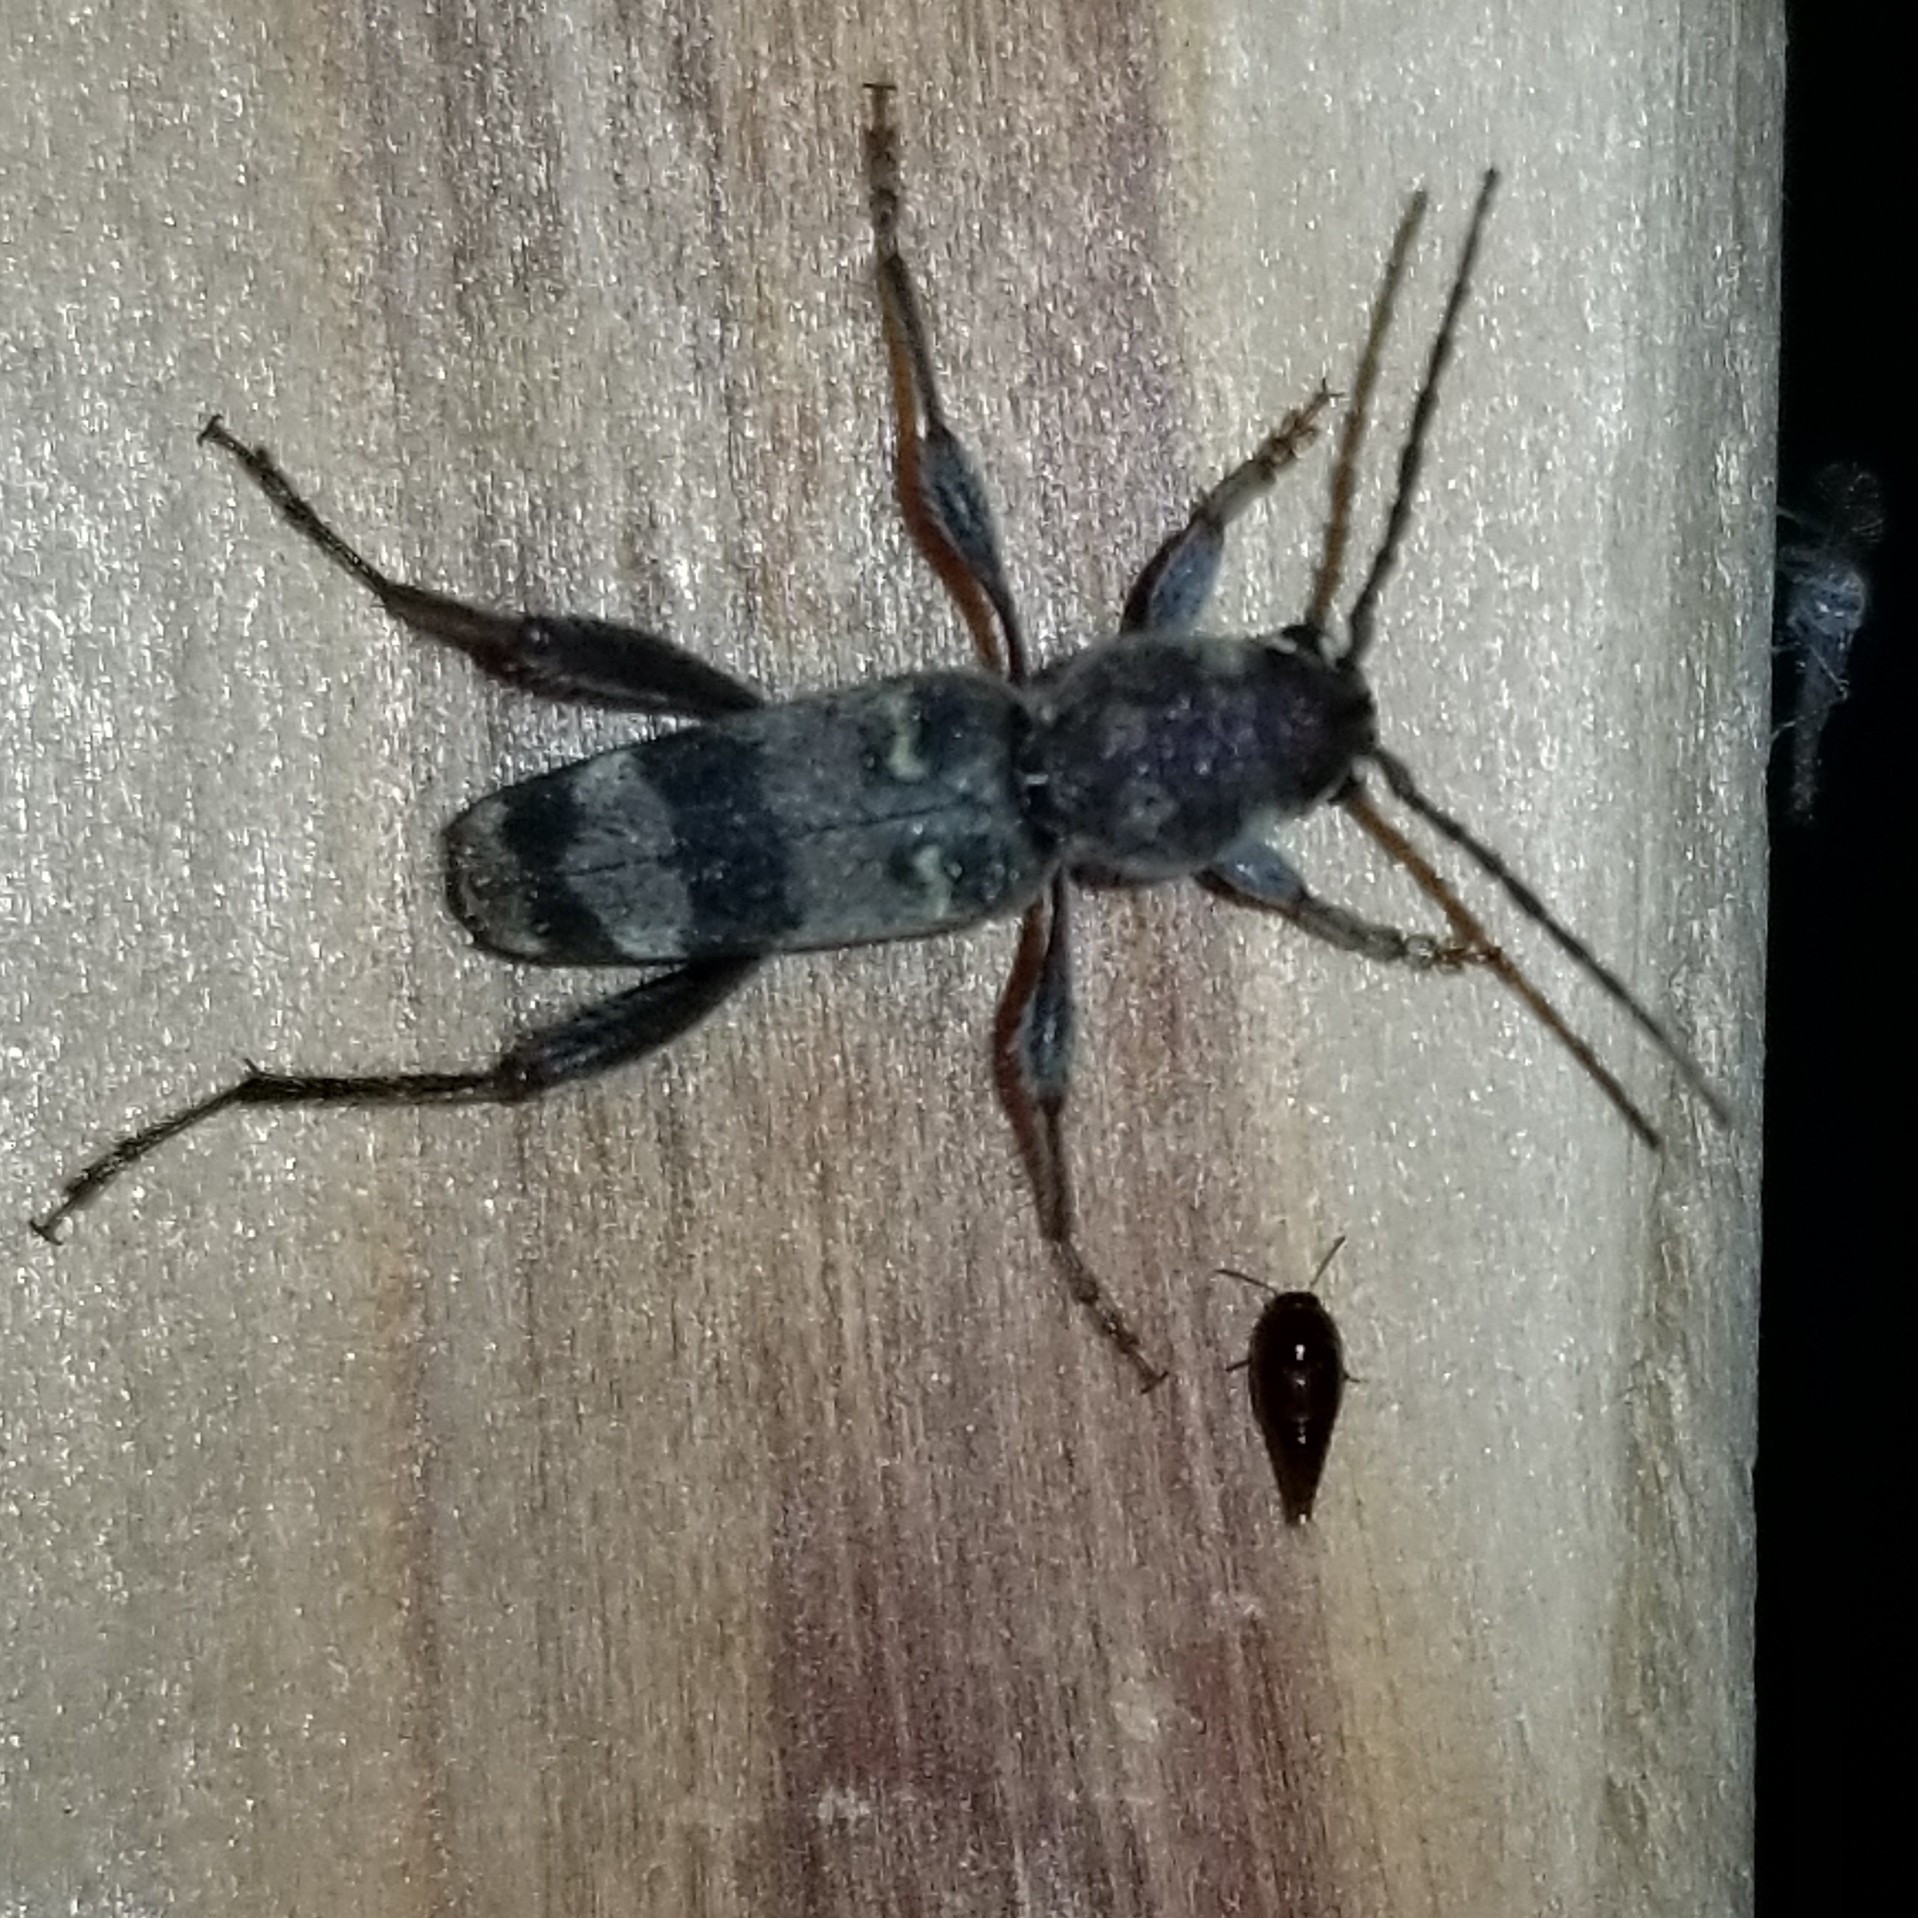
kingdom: Animalia
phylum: Arthropoda
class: Insecta
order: Coleoptera
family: Cerambycidae
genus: Xylotrechus
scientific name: Xylotrechus colonus
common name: Long-horned beetle
